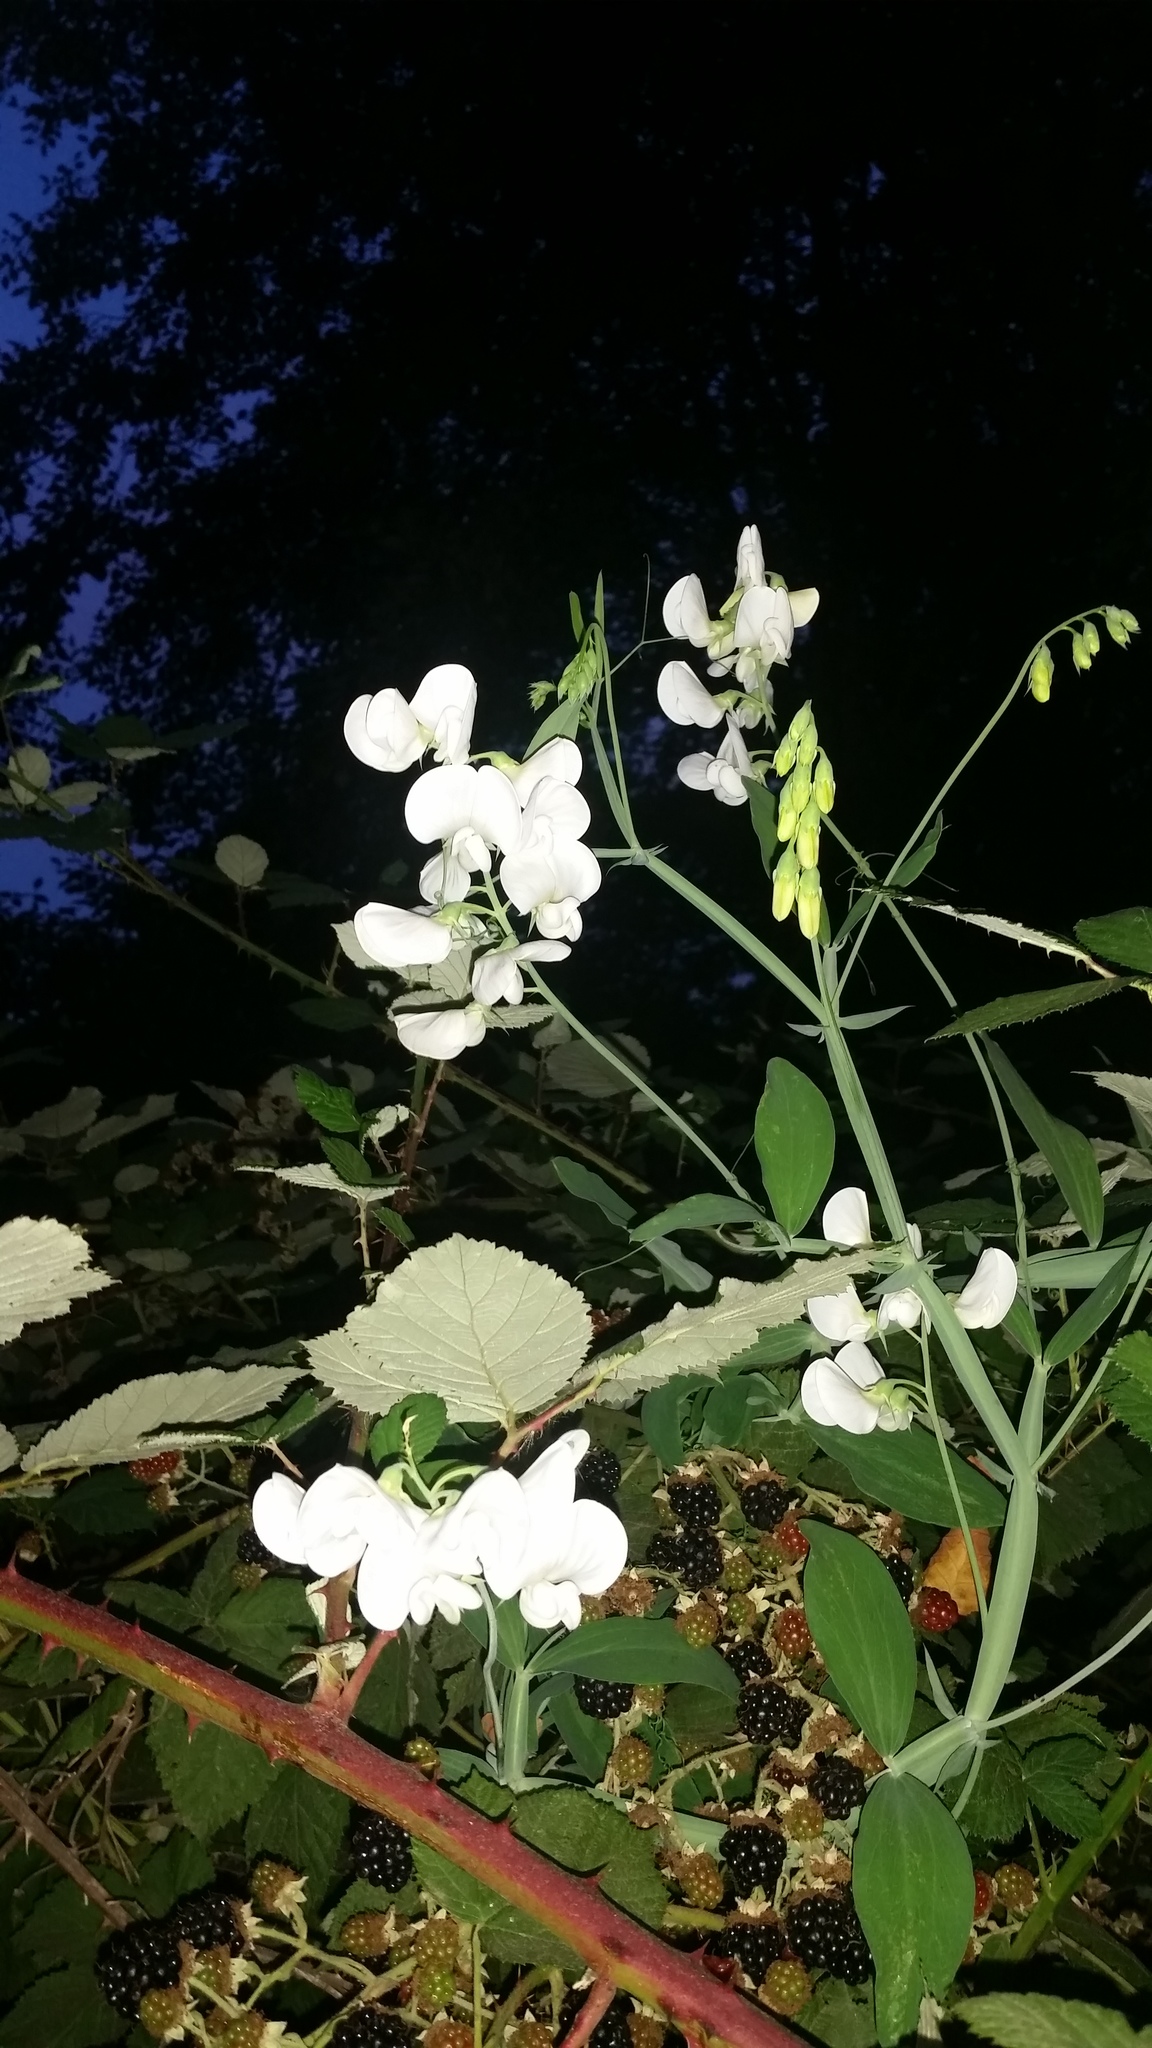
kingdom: Plantae
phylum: Tracheophyta
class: Magnoliopsida
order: Fabales
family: Fabaceae
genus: Lathyrus
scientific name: Lathyrus latifolius
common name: Perennial pea
